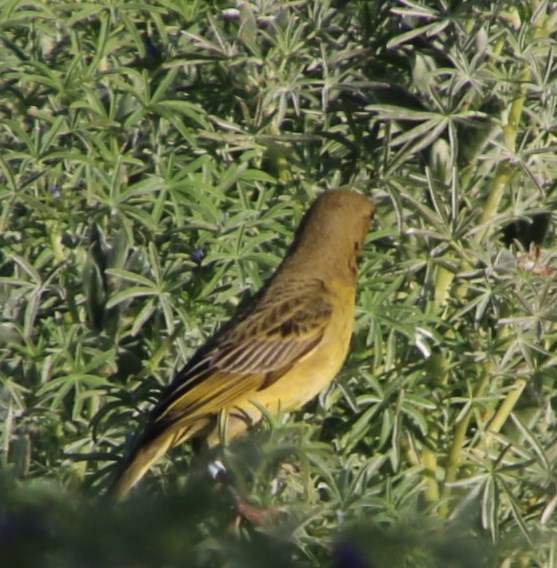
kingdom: Animalia
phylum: Chordata
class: Aves
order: Passeriformes
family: Ploceidae
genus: Ploceus
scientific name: Ploceus capensis
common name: Cape weaver
